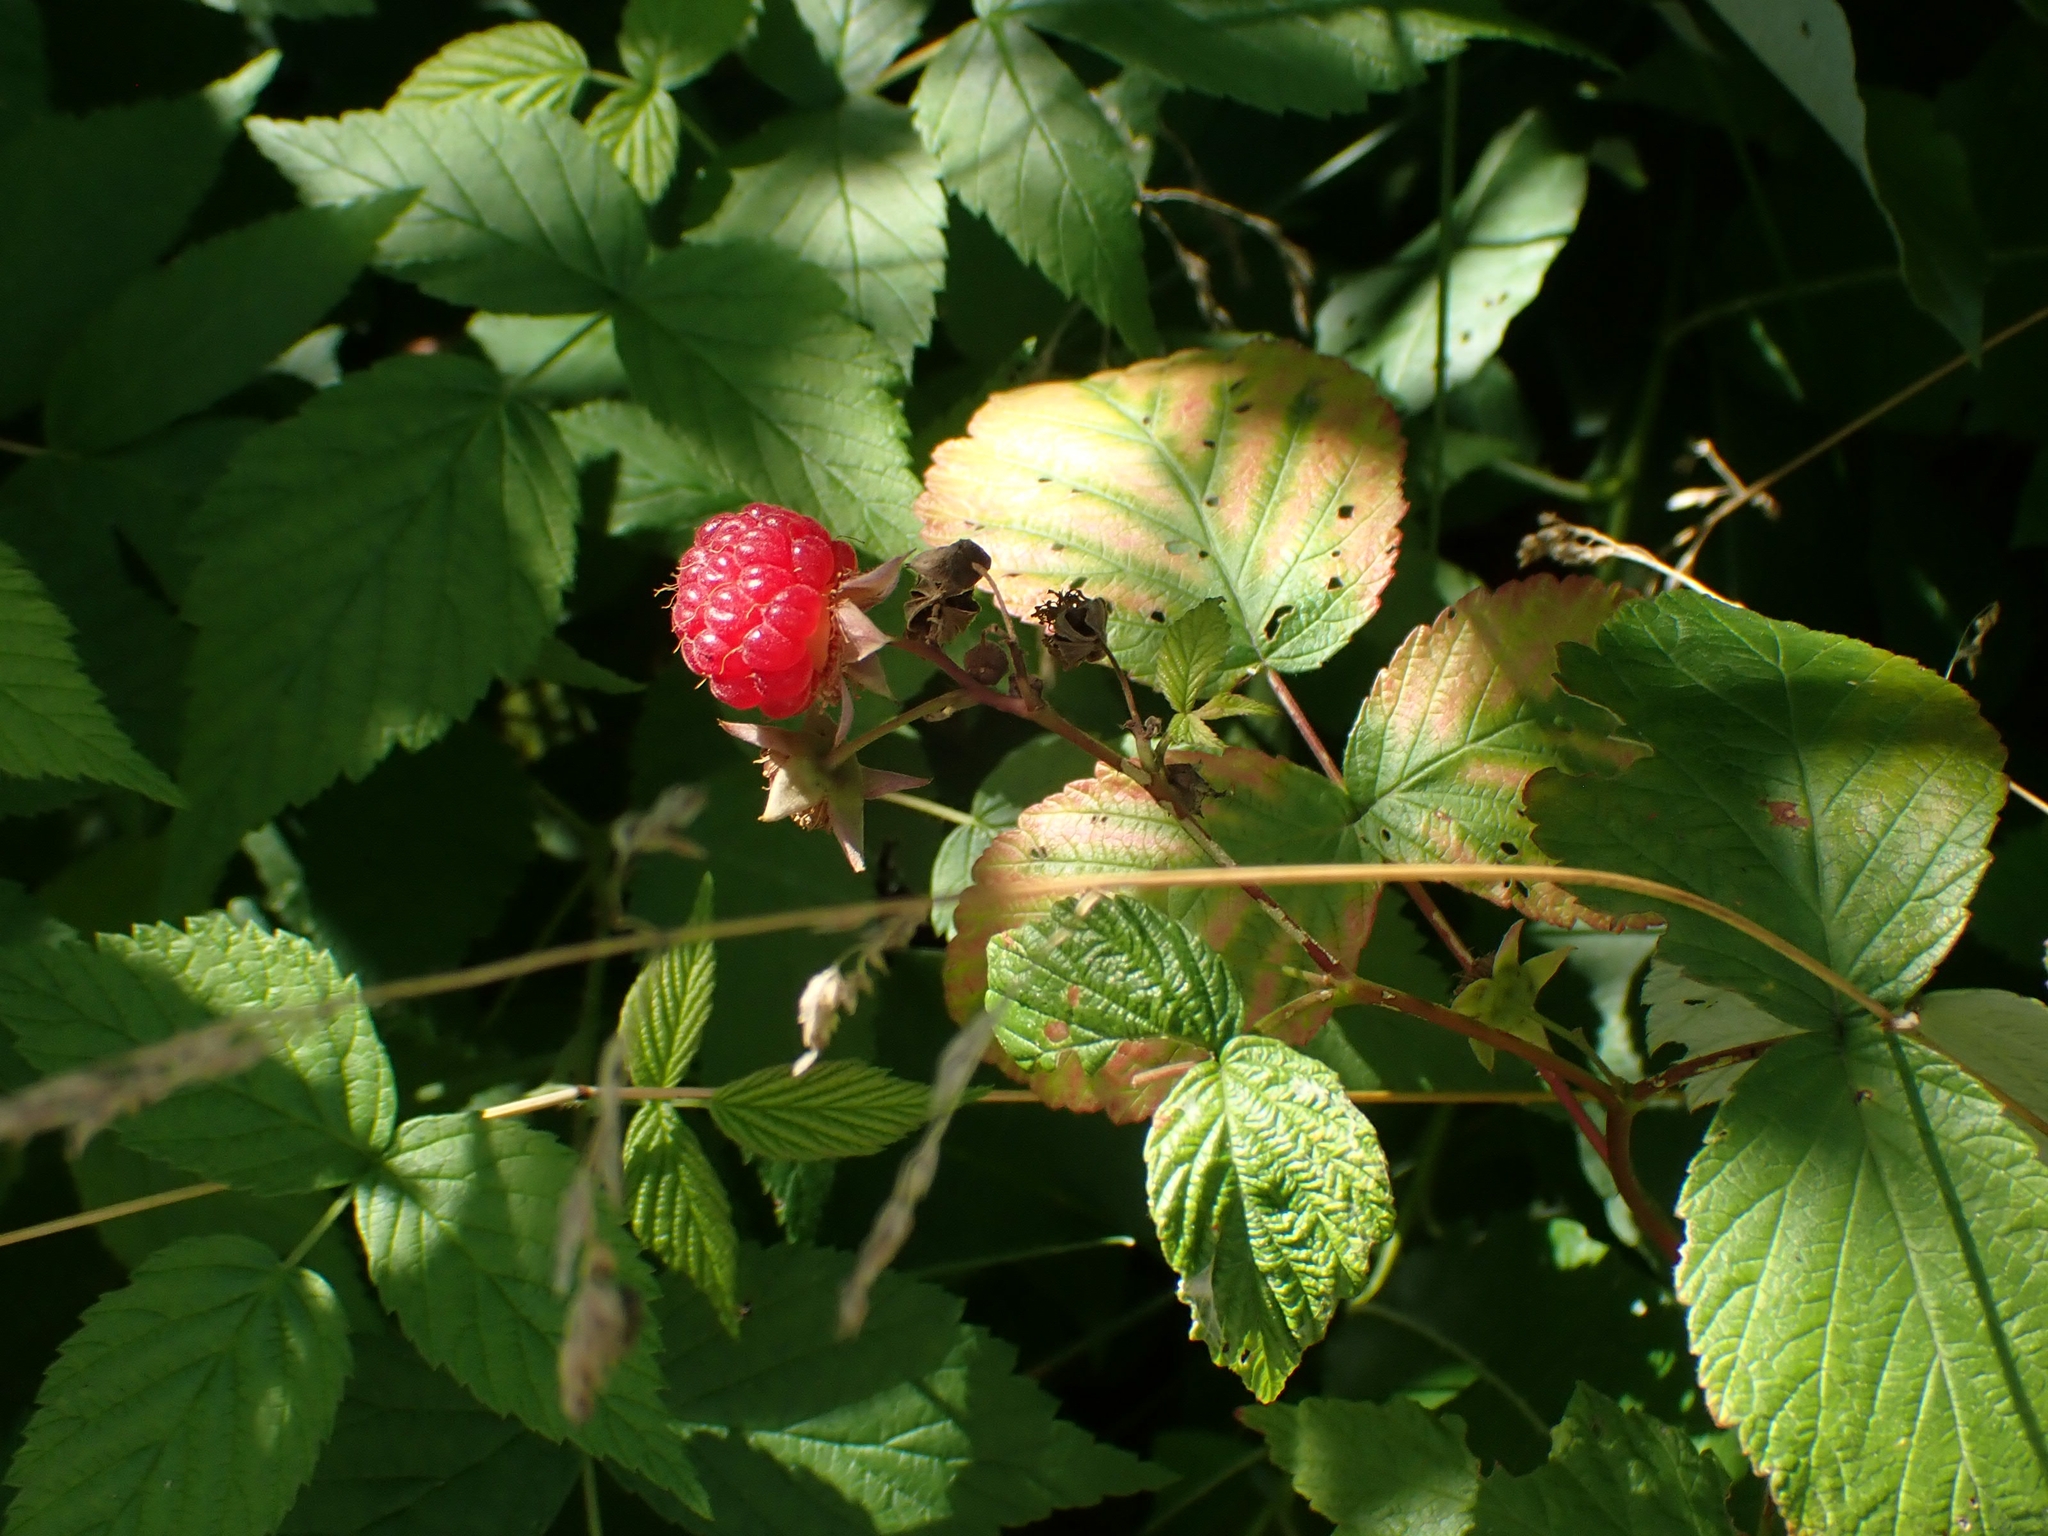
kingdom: Plantae
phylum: Tracheophyta
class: Magnoliopsida
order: Rosales
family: Rosaceae
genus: Rubus
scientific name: Rubus idaeus
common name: Raspberry
